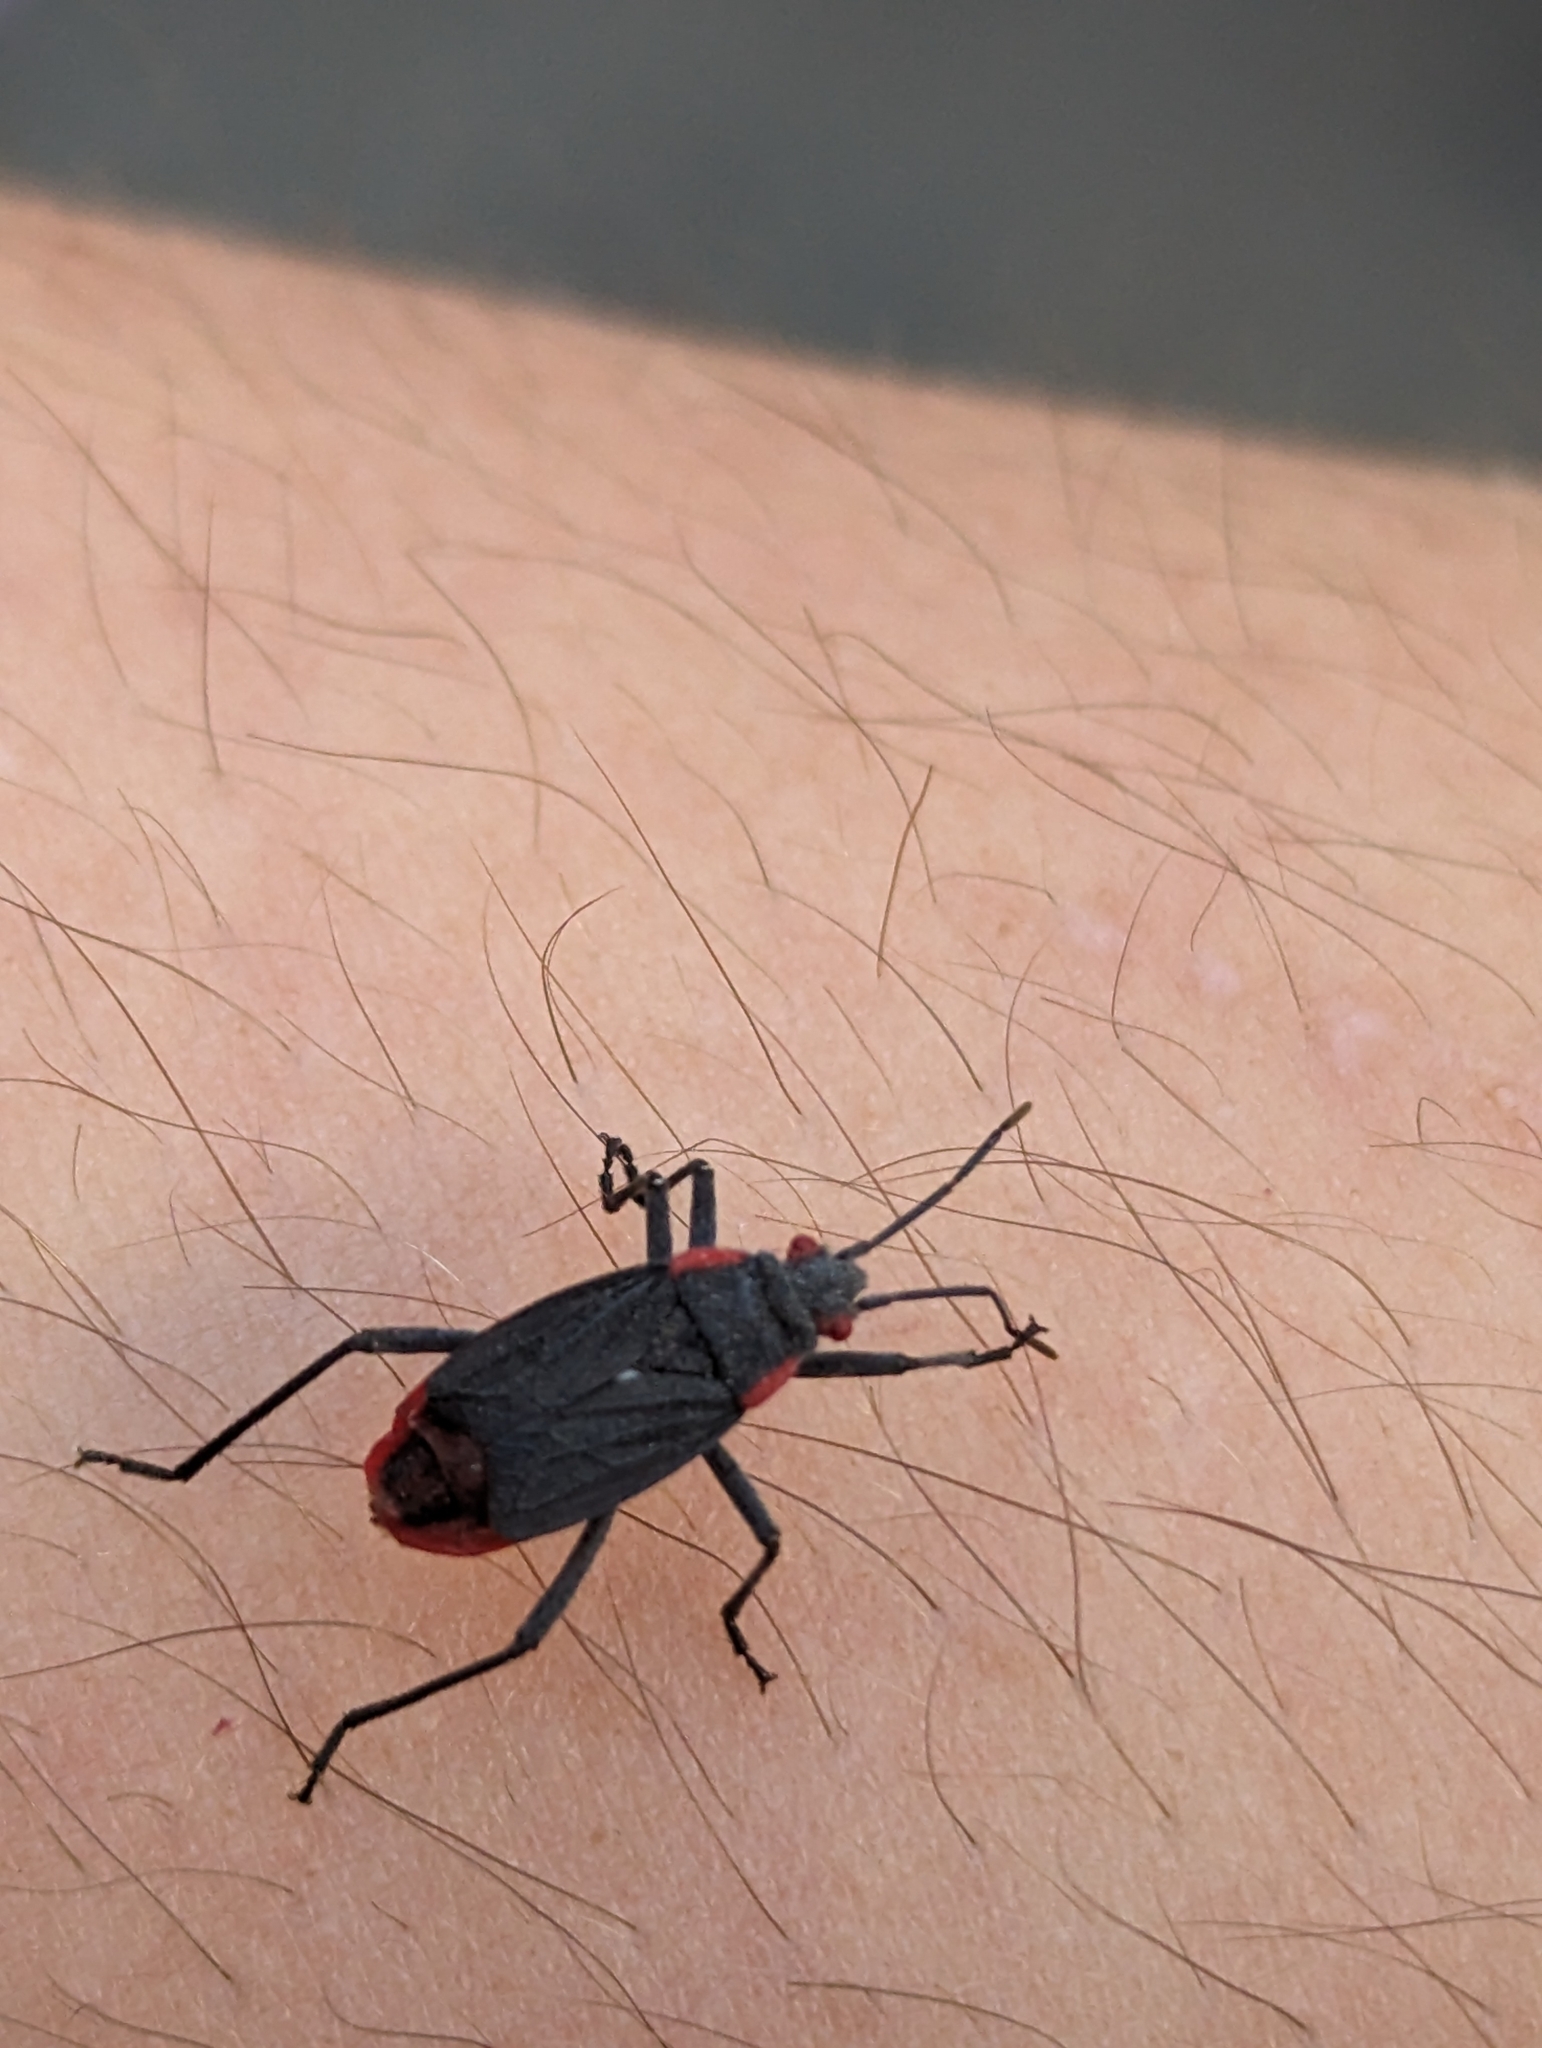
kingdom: Animalia
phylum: Arthropoda
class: Insecta
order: Hemiptera
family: Rhopalidae
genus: Jadera
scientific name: Jadera haematoloma
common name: Red-shouldered bug
